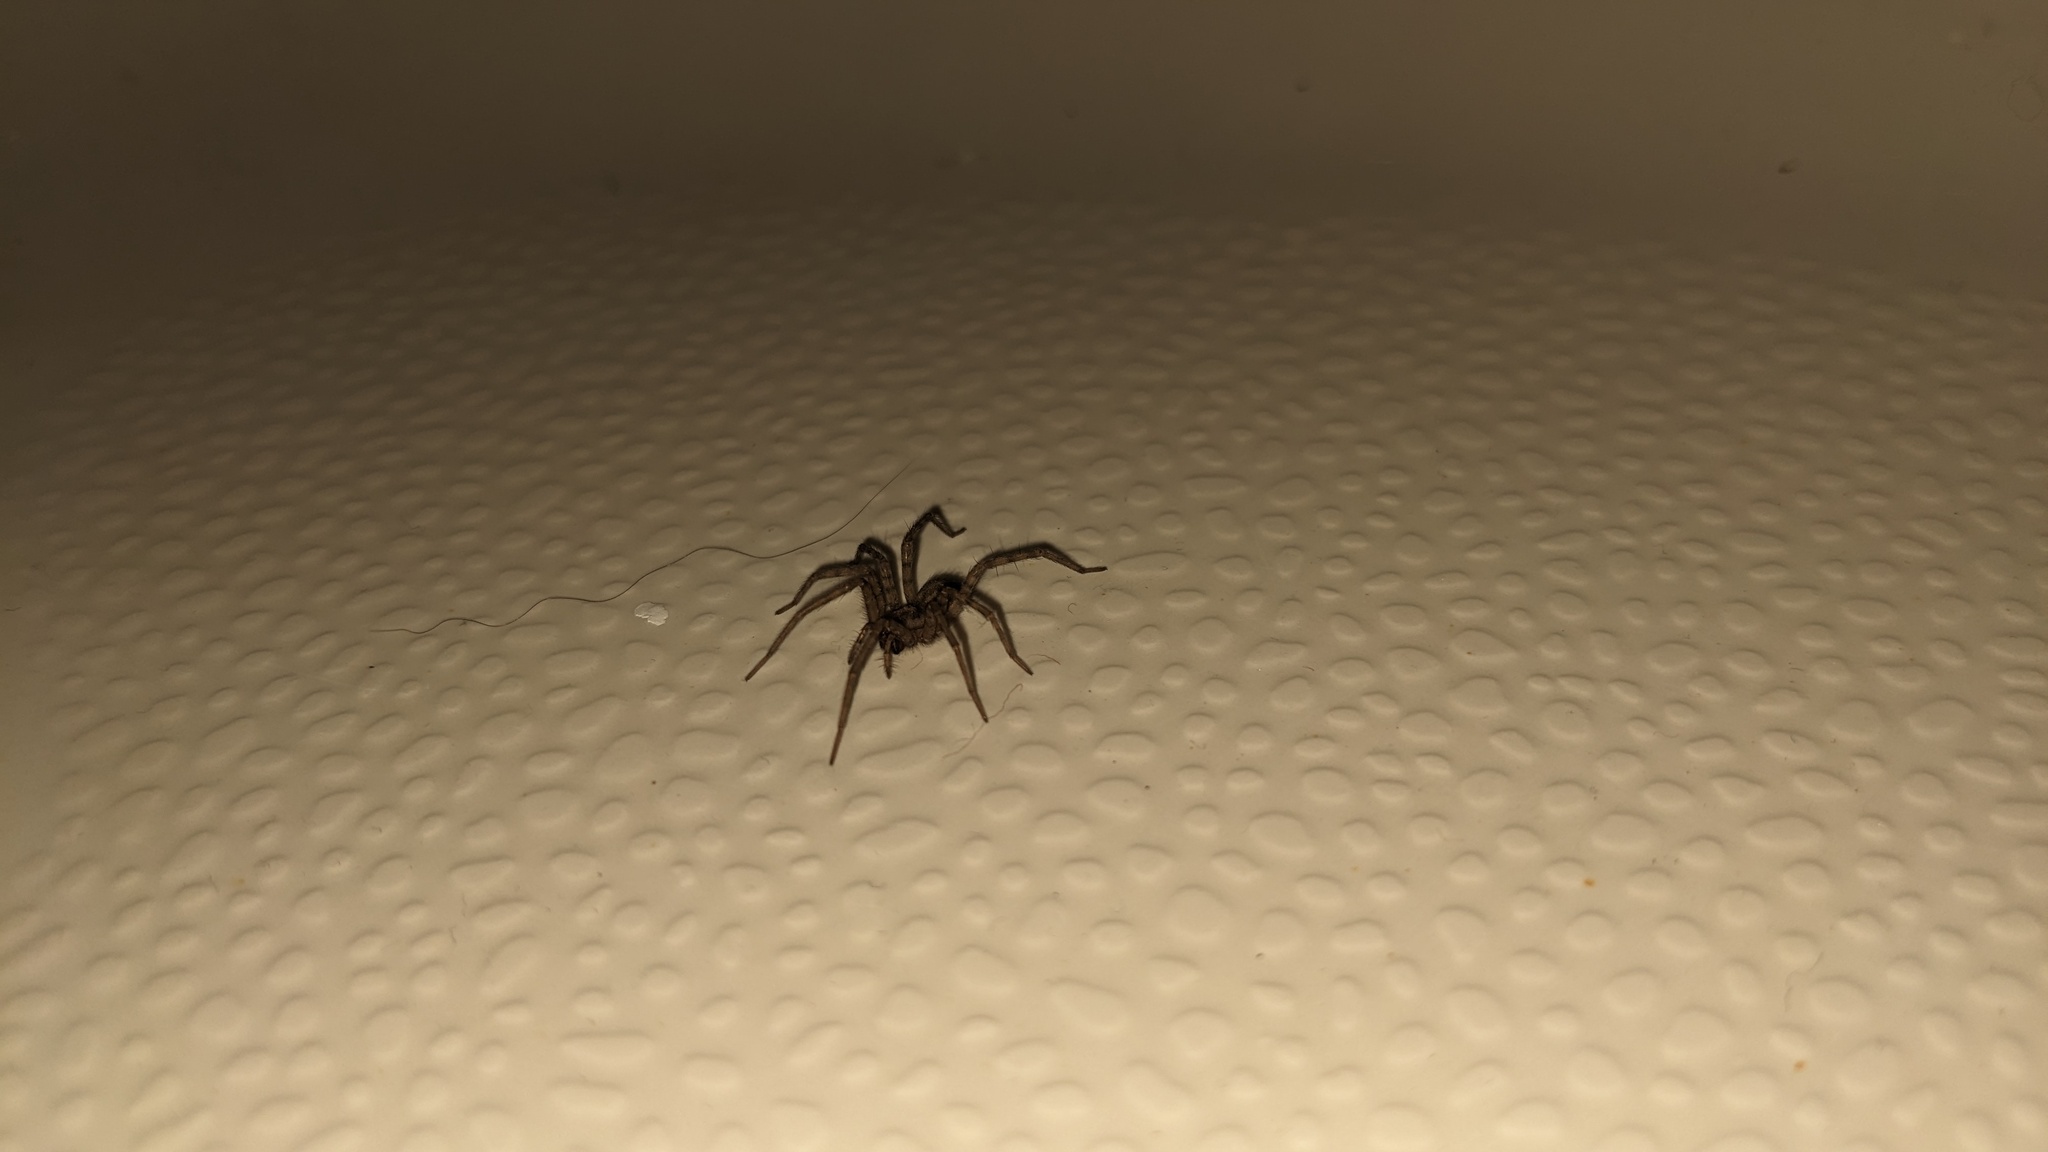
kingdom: Animalia
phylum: Arthropoda
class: Arachnida
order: Araneae
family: Agelenidae
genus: Tegenaria
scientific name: Tegenaria domestica
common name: Barn funnel weaver
